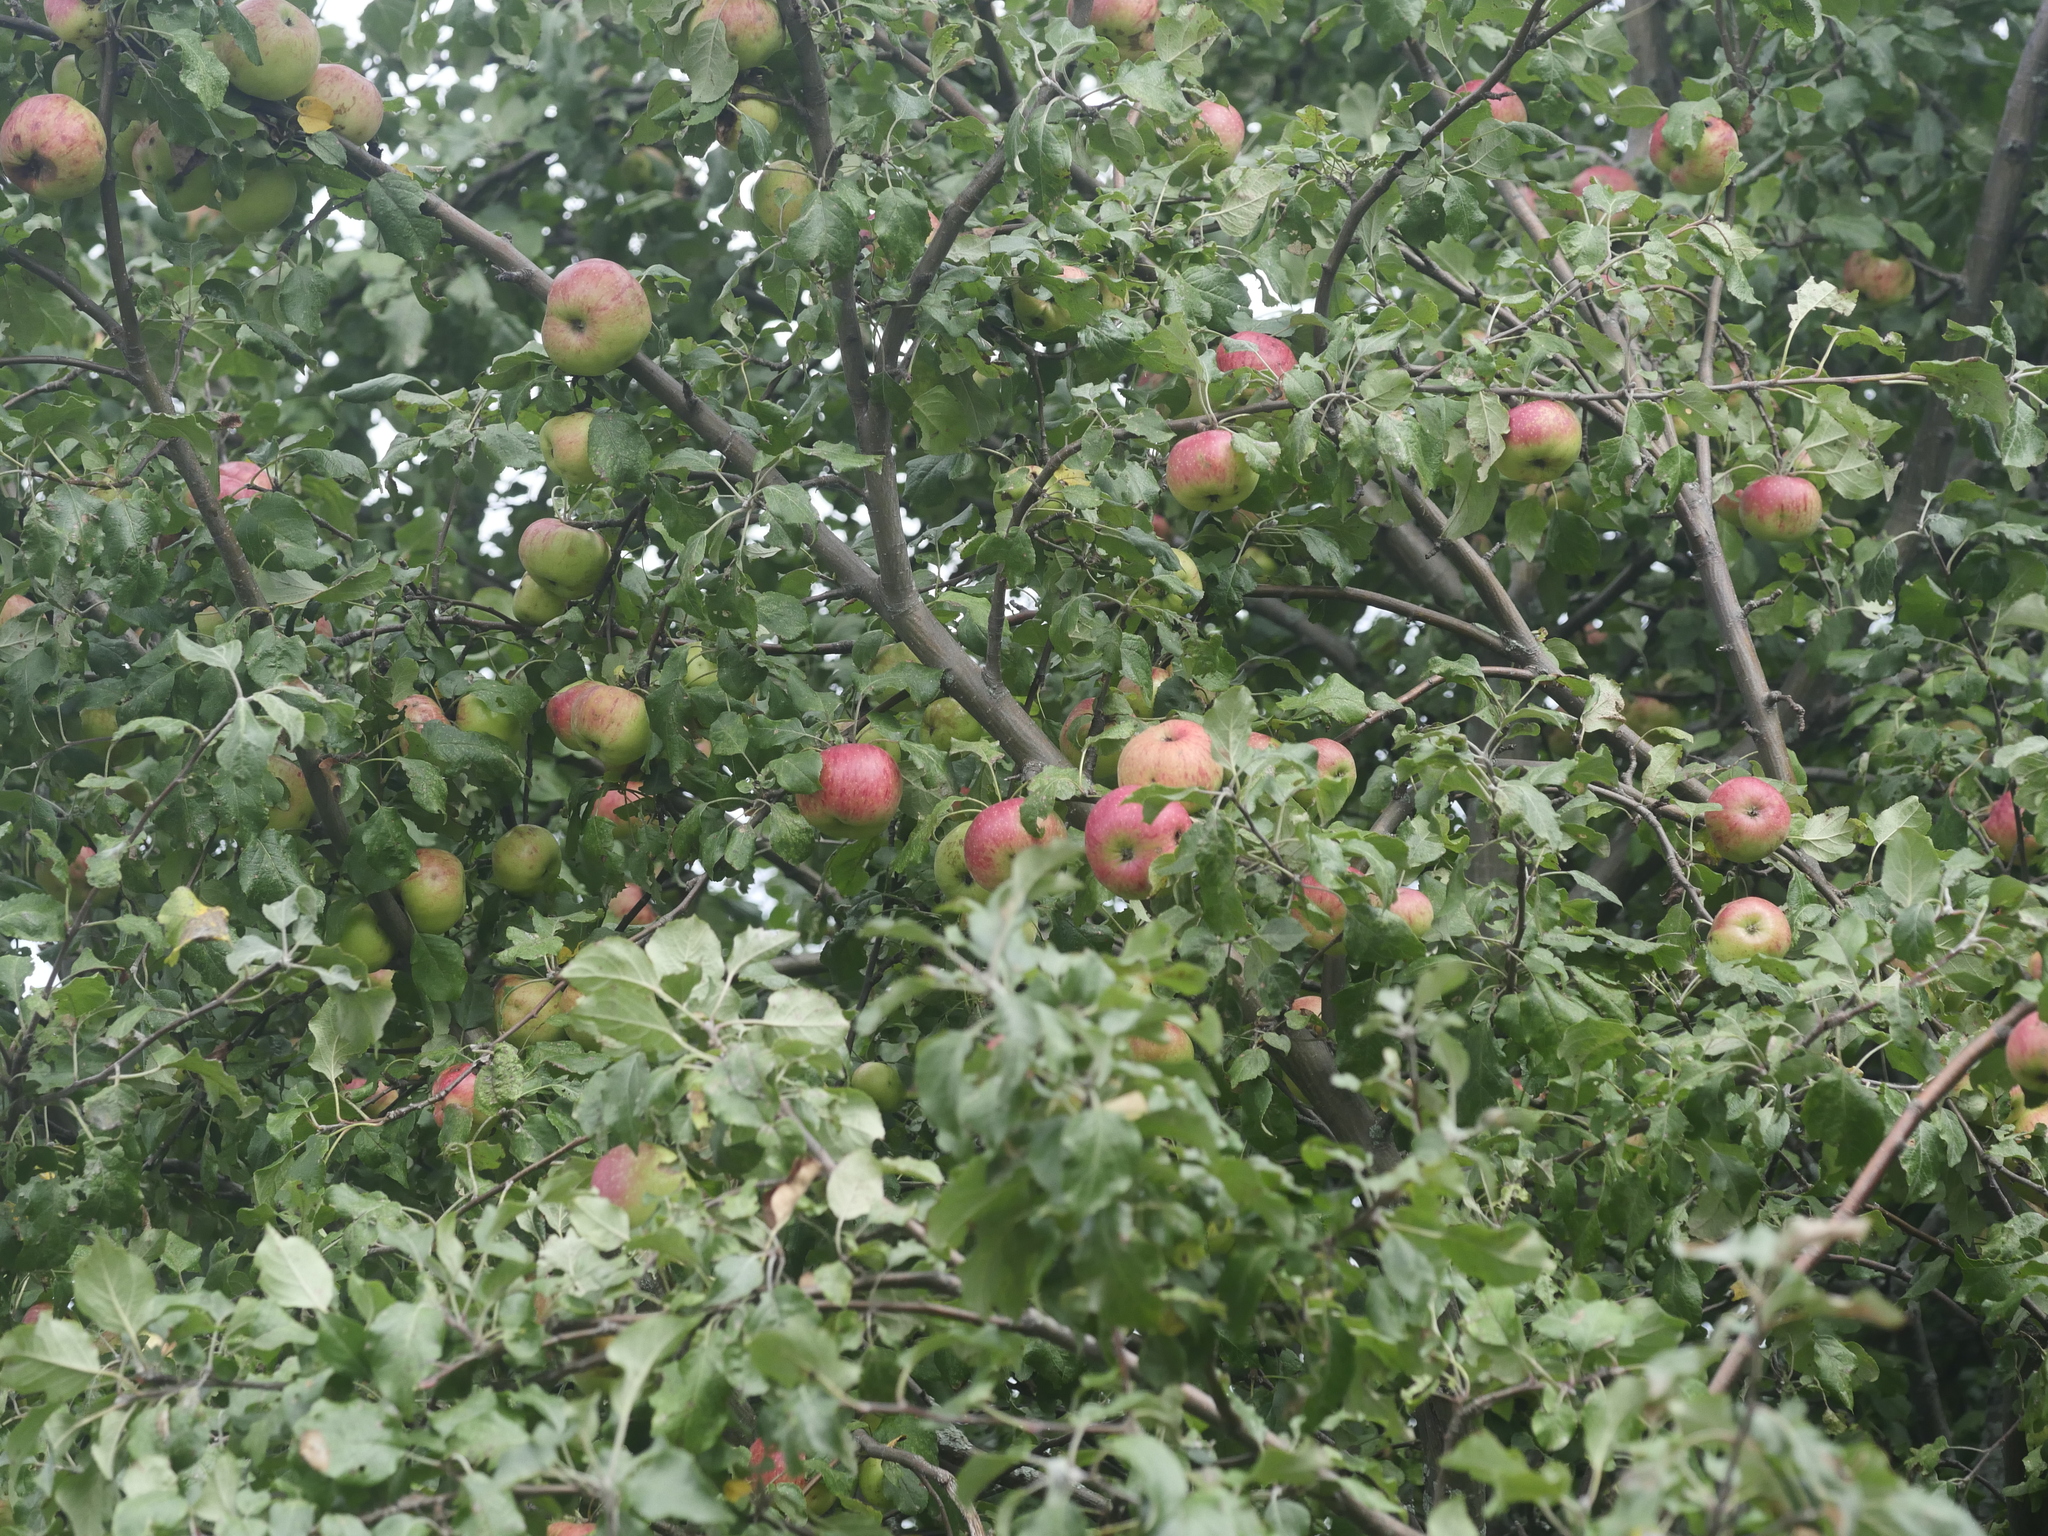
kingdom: Plantae
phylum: Tracheophyta
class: Magnoliopsida
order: Rosales
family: Rosaceae
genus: Malus
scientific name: Malus domestica
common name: Apple
